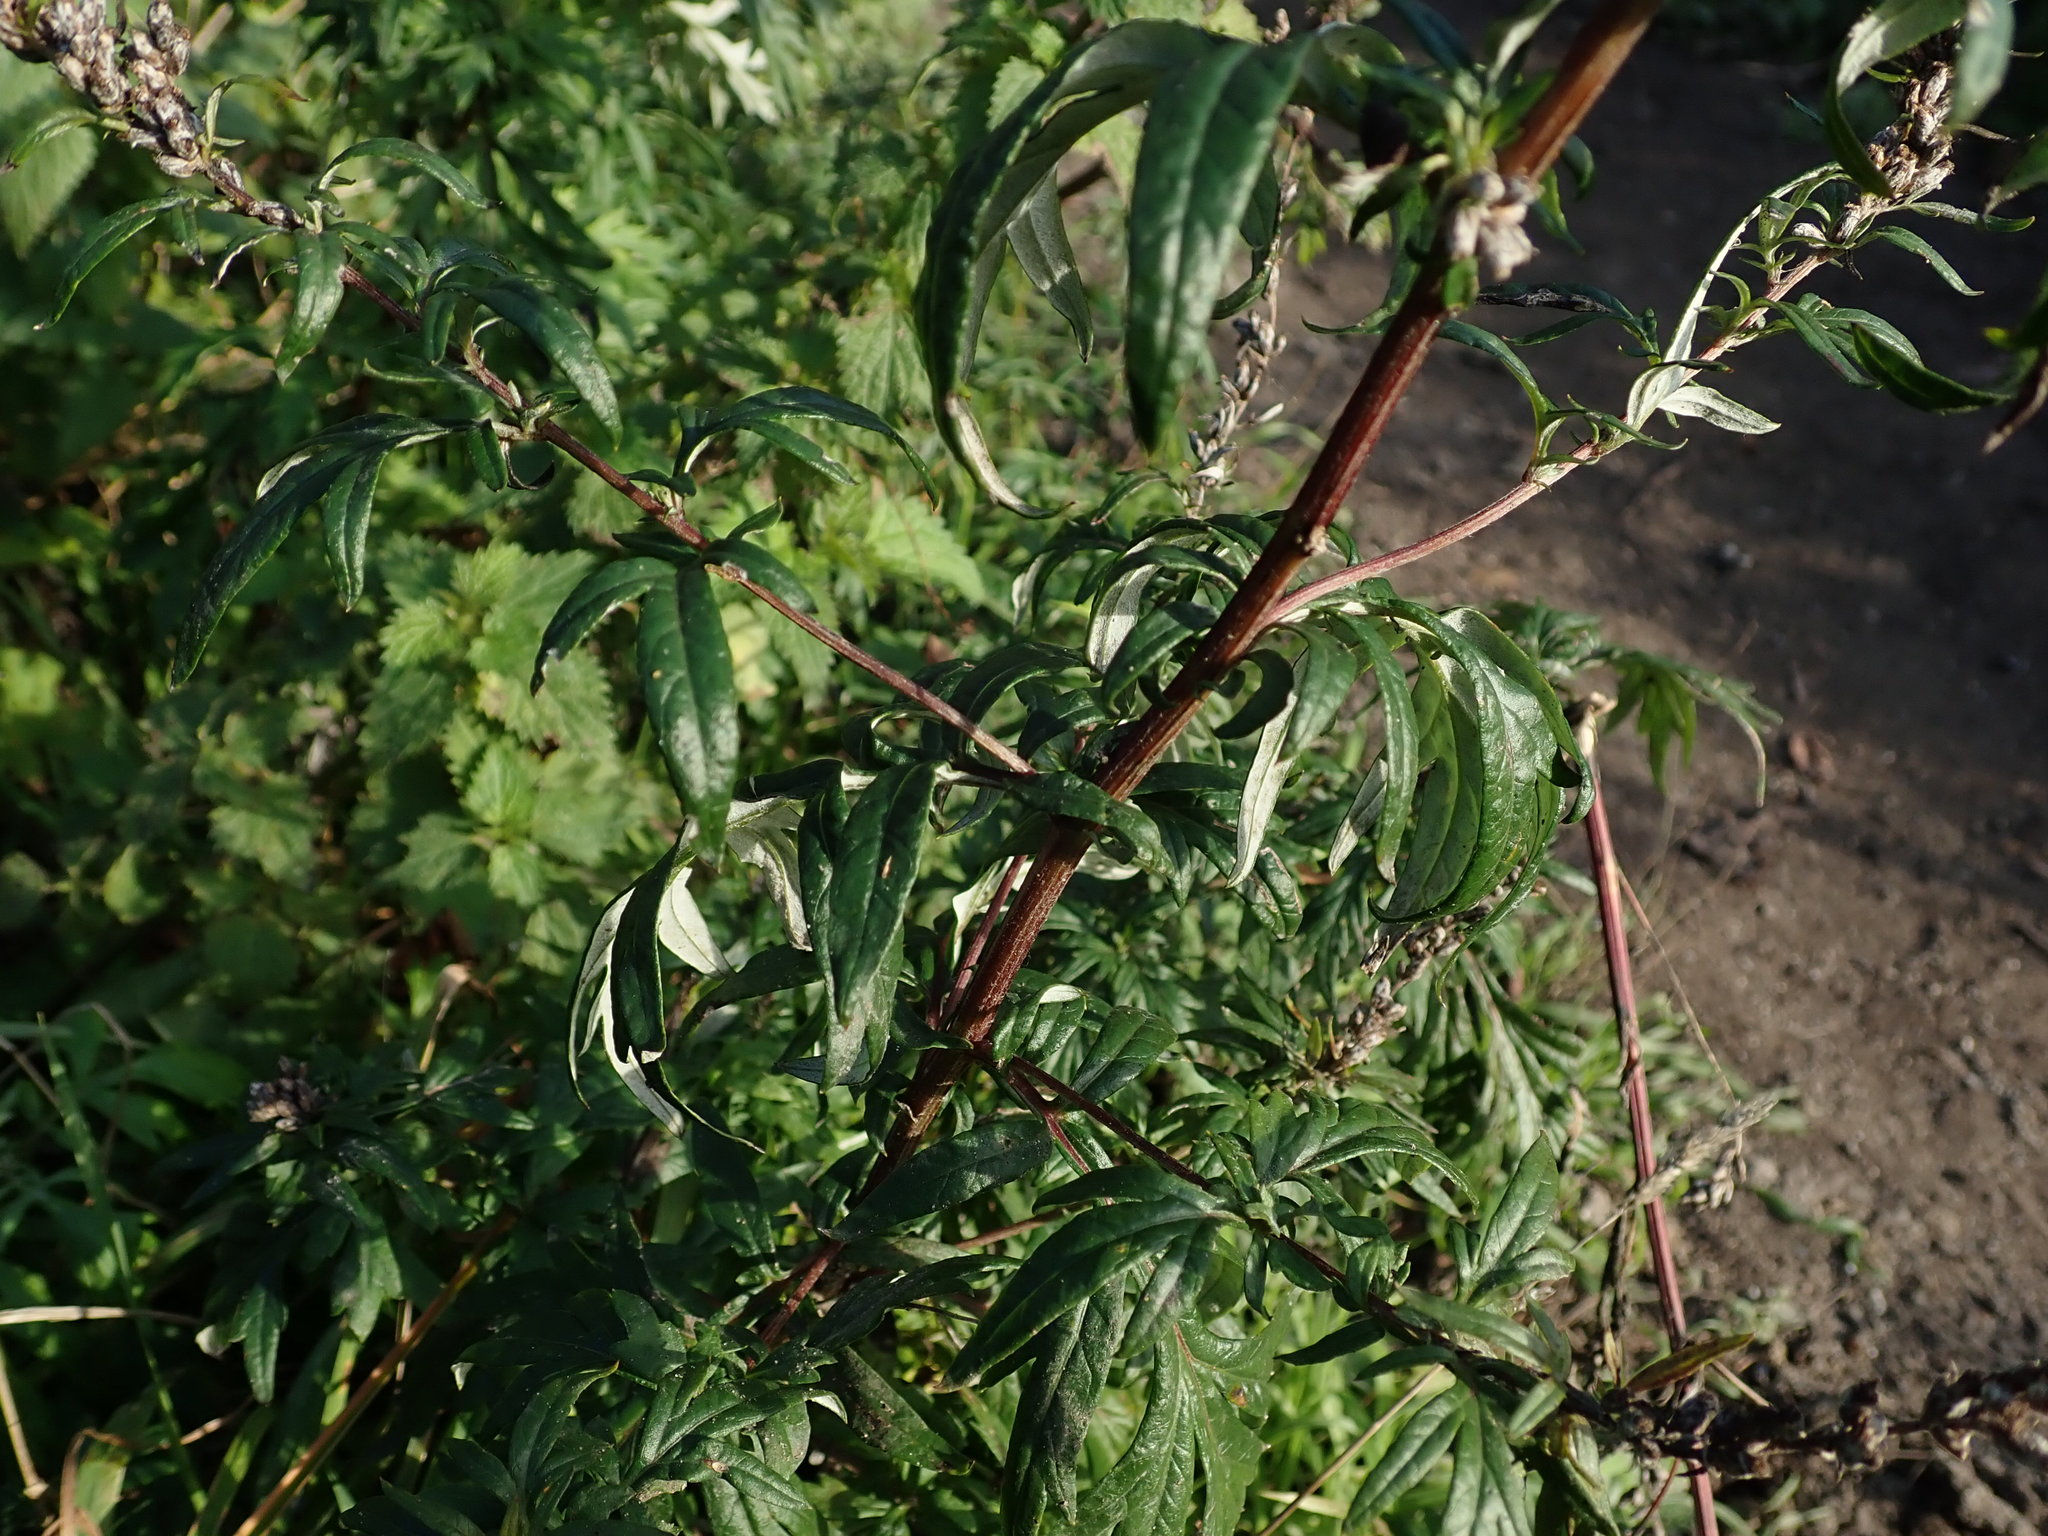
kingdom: Plantae
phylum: Tracheophyta
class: Magnoliopsida
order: Asterales
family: Asteraceae
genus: Artemisia
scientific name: Artemisia vulgaris
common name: Mugwort
